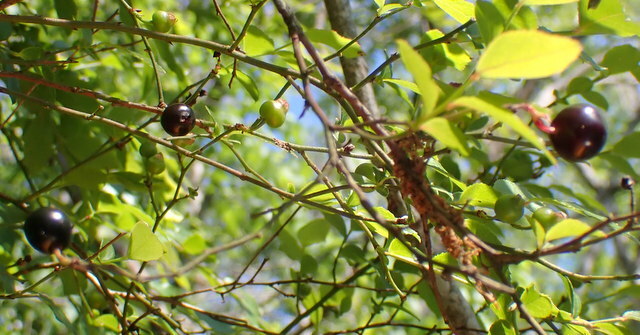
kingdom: Plantae
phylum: Tracheophyta
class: Magnoliopsida
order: Ericales
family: Ericaceae
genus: Vaccinium
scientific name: Vaccinium corymbosum
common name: Blueberry
